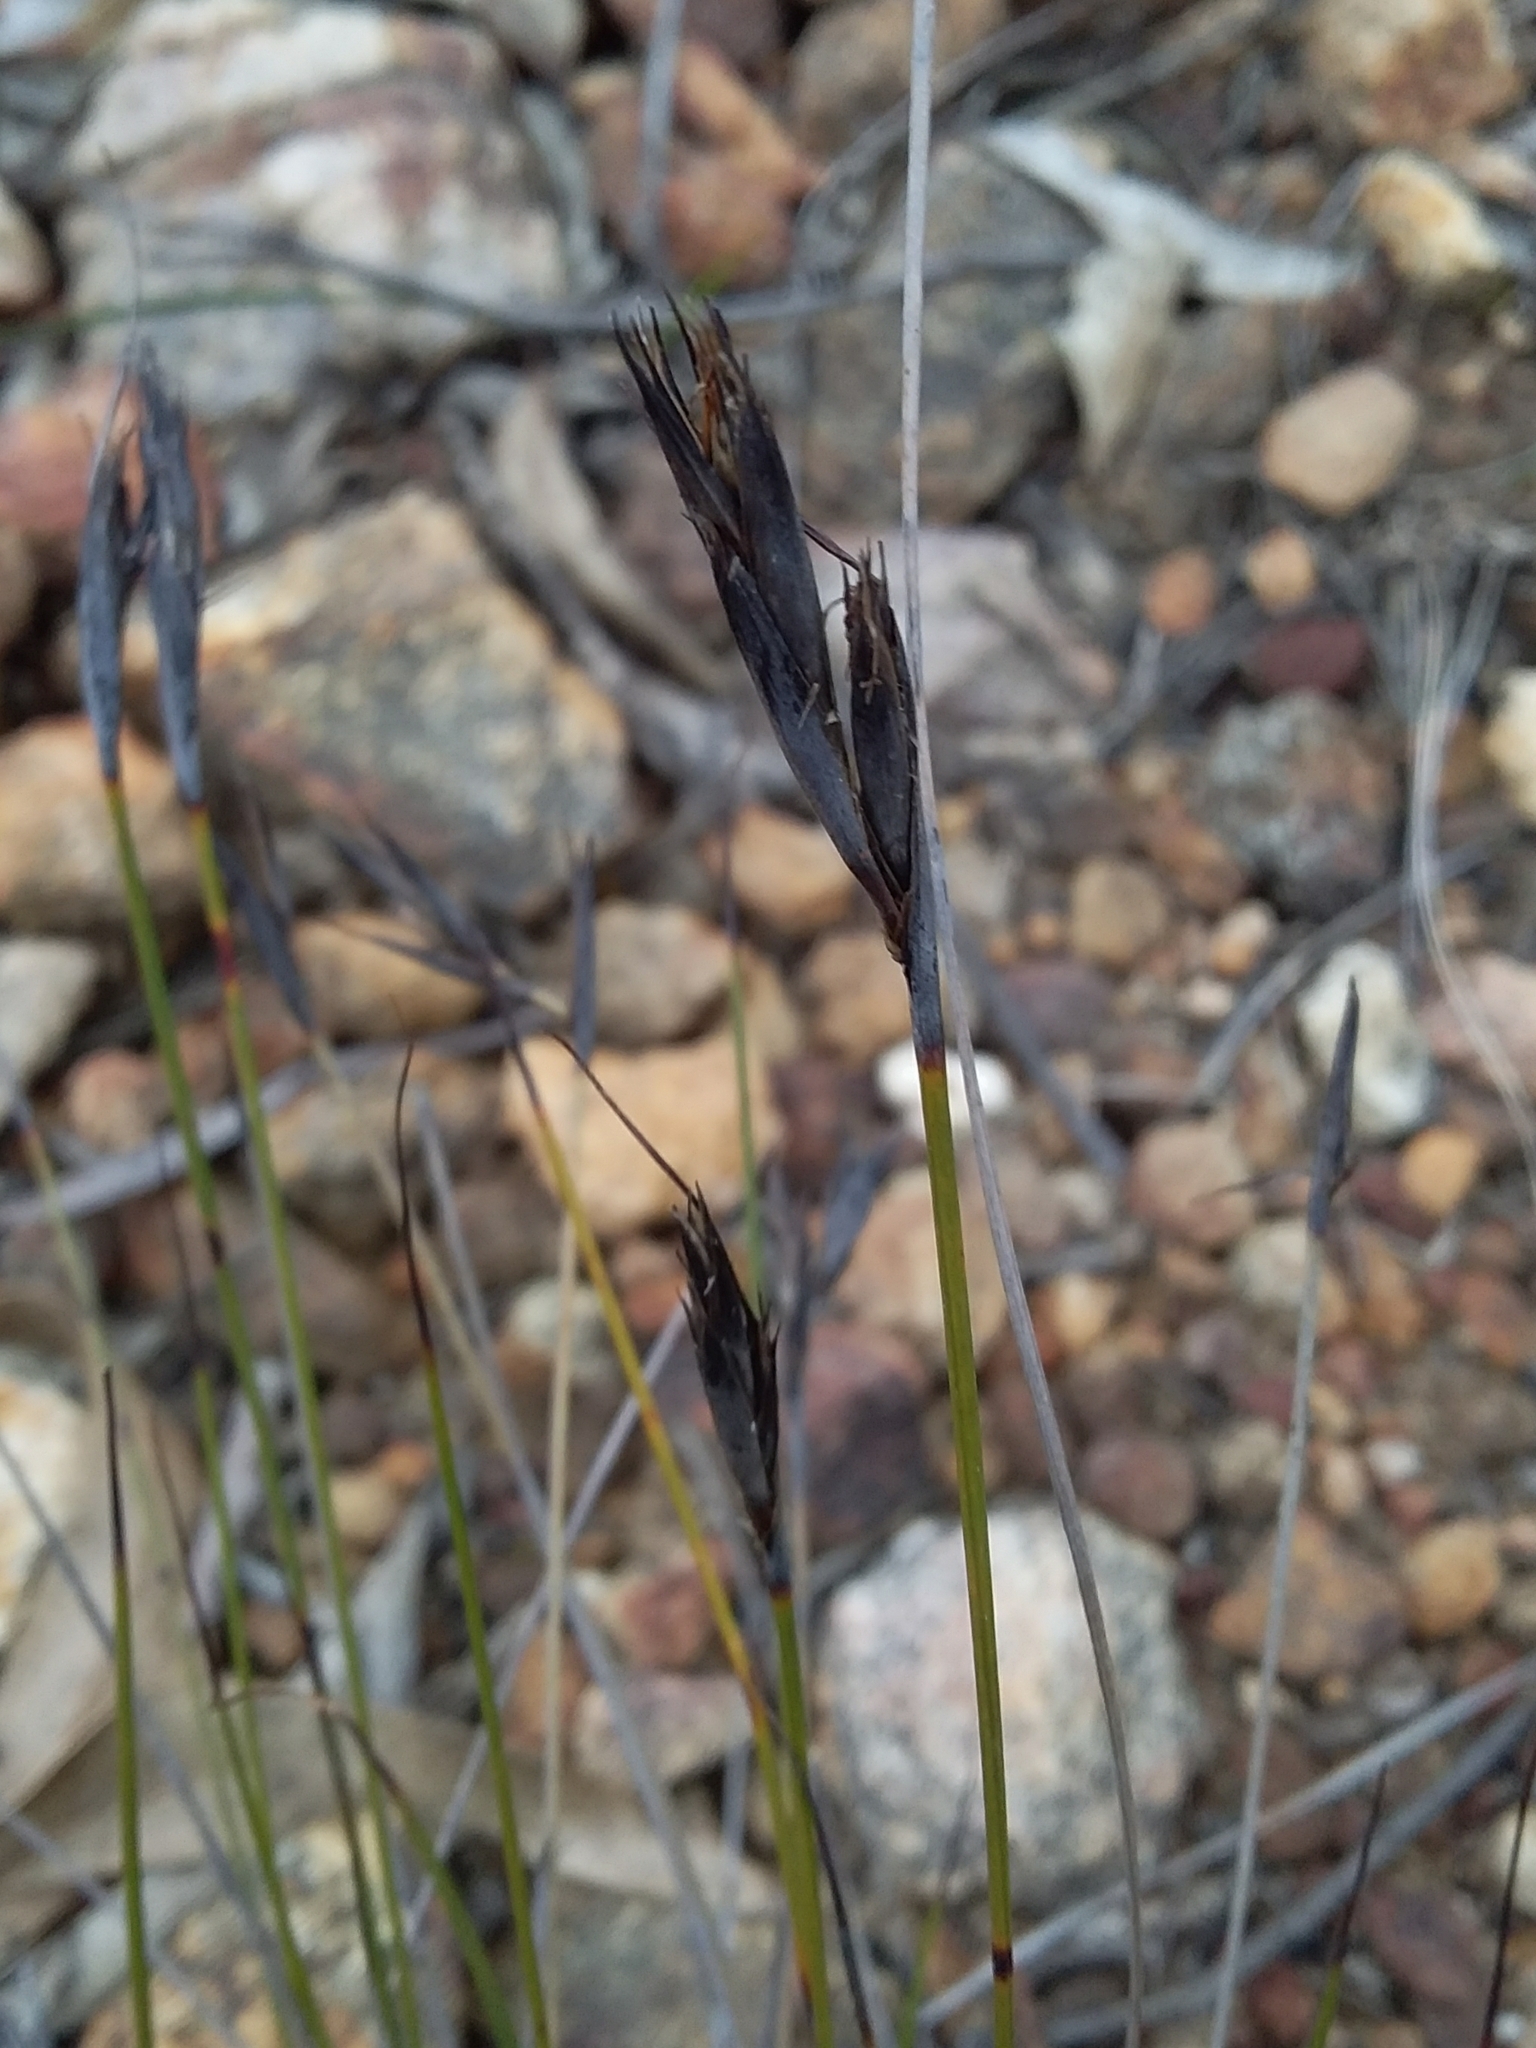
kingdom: Plantae
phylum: Tracheophyta
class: Liliopsida
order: Poales
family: Cyperaceae
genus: Lepidosperma
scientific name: Lepidosperma carphoides
